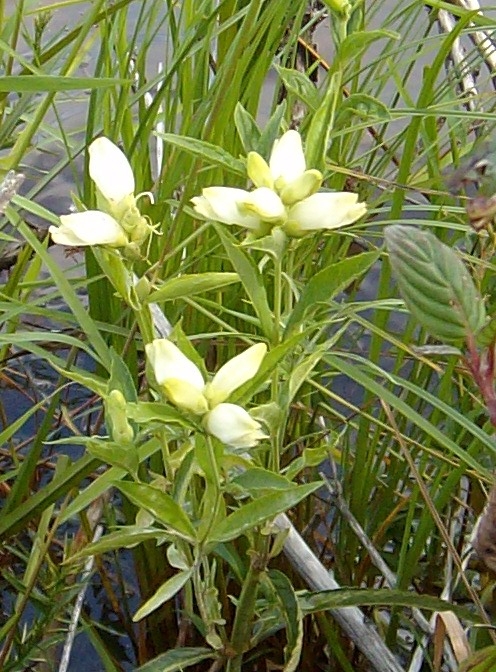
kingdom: Plantae
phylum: Tracheophyta
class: Magnoliopsida
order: Lamiales
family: Plantaginaceae
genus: Chelone
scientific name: Chelone glabra
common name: Snakehead
